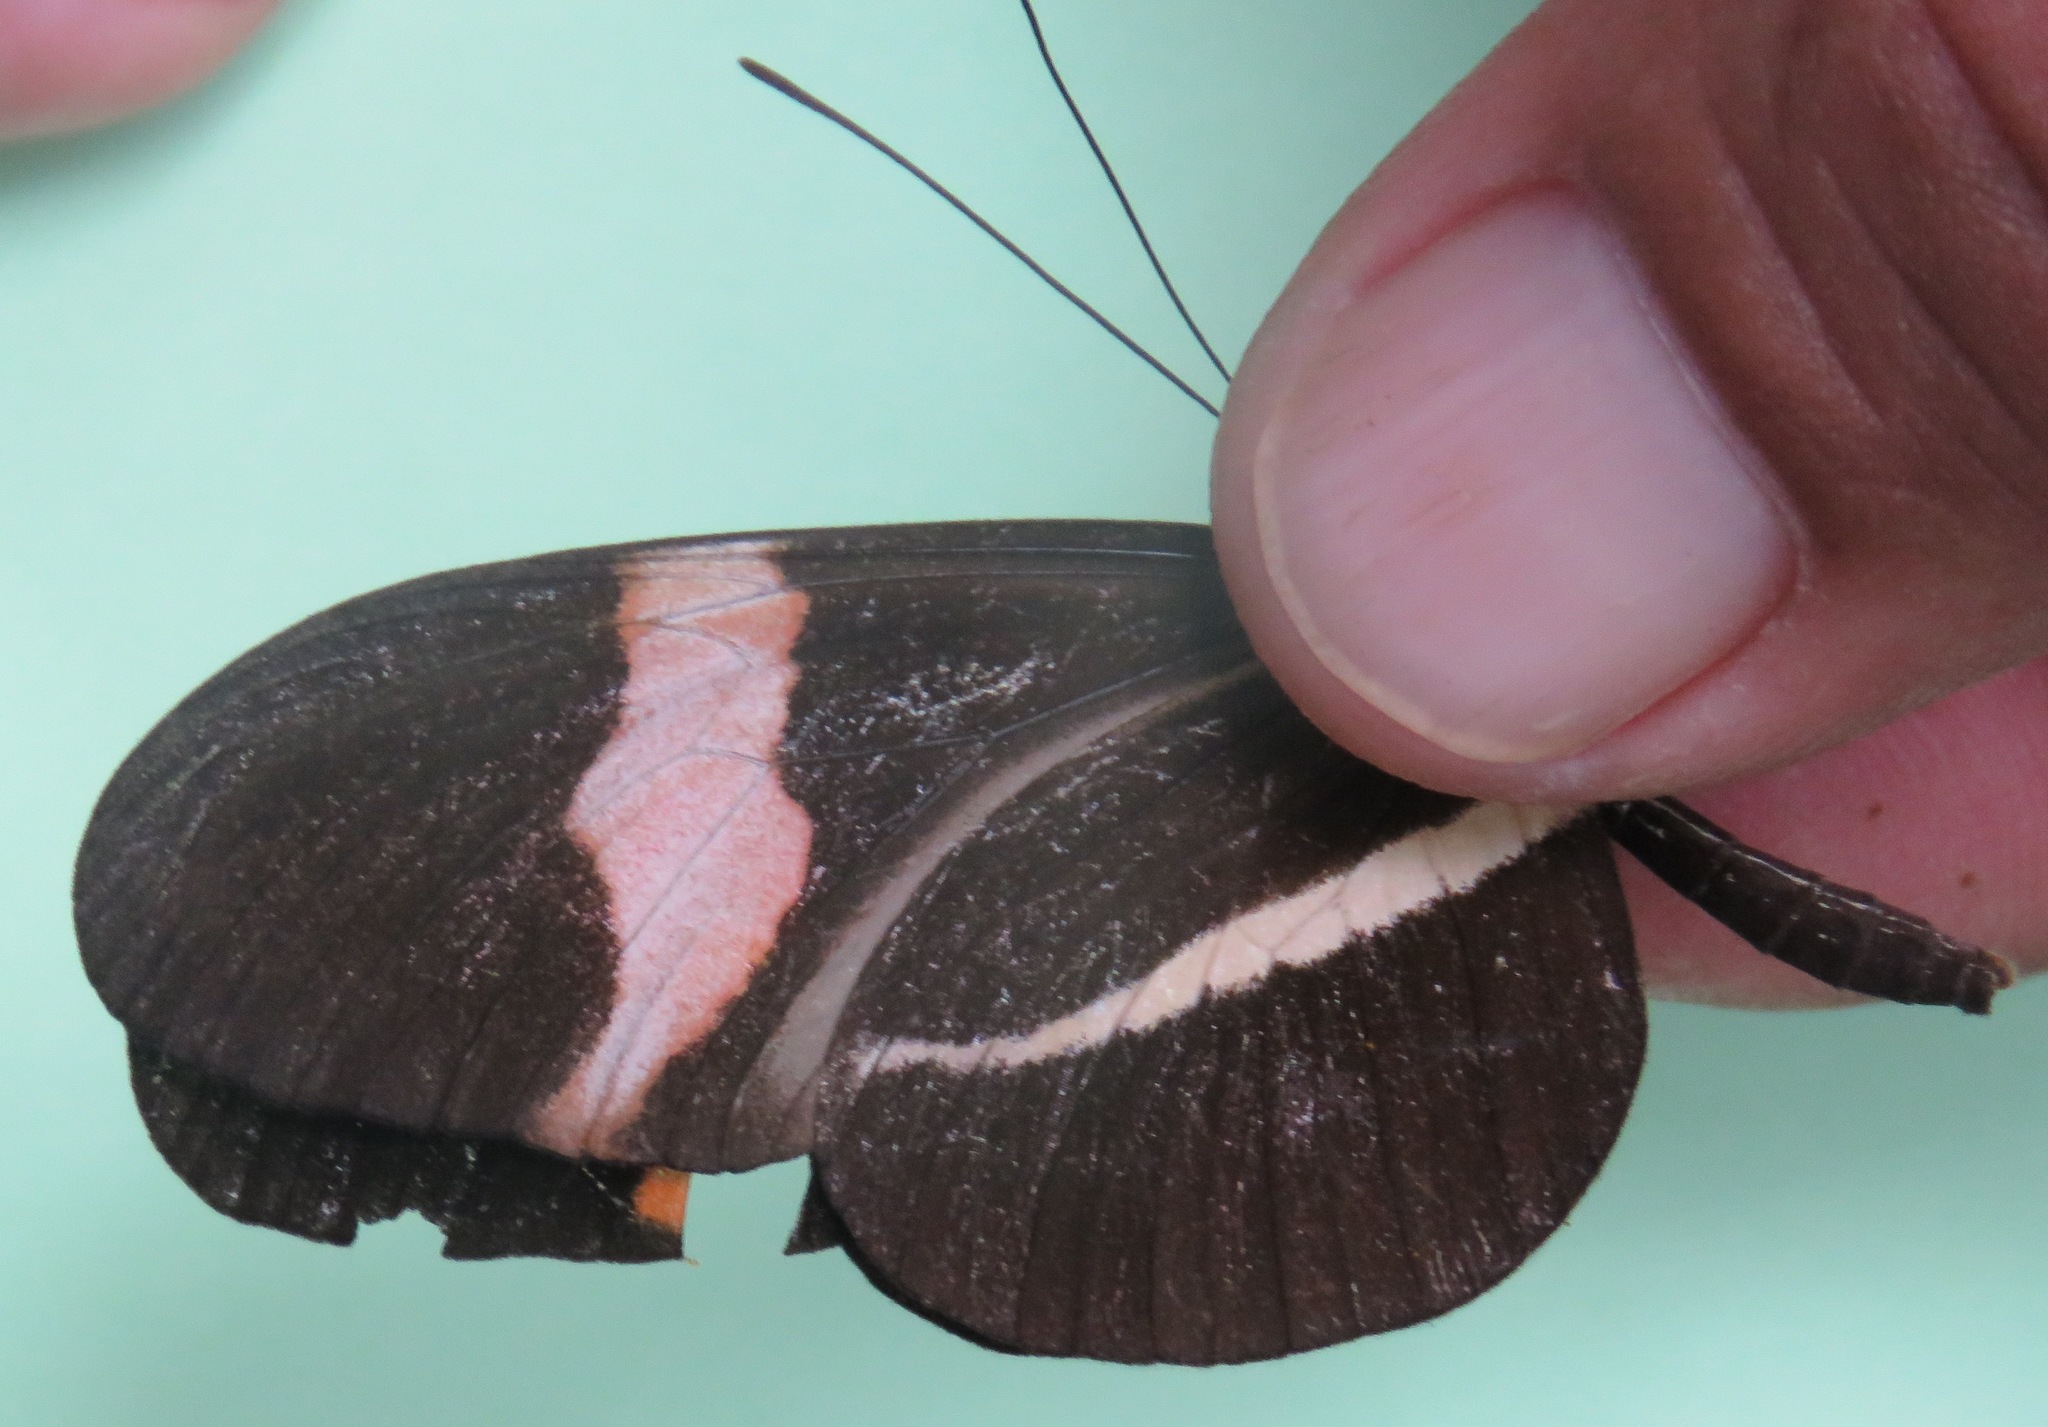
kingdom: Animalia
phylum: Arthropoda
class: Insecta
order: Lepidoptera
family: Nymphalidae
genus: Tirumala
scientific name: Tirumala petiverana
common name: Blue monarch
